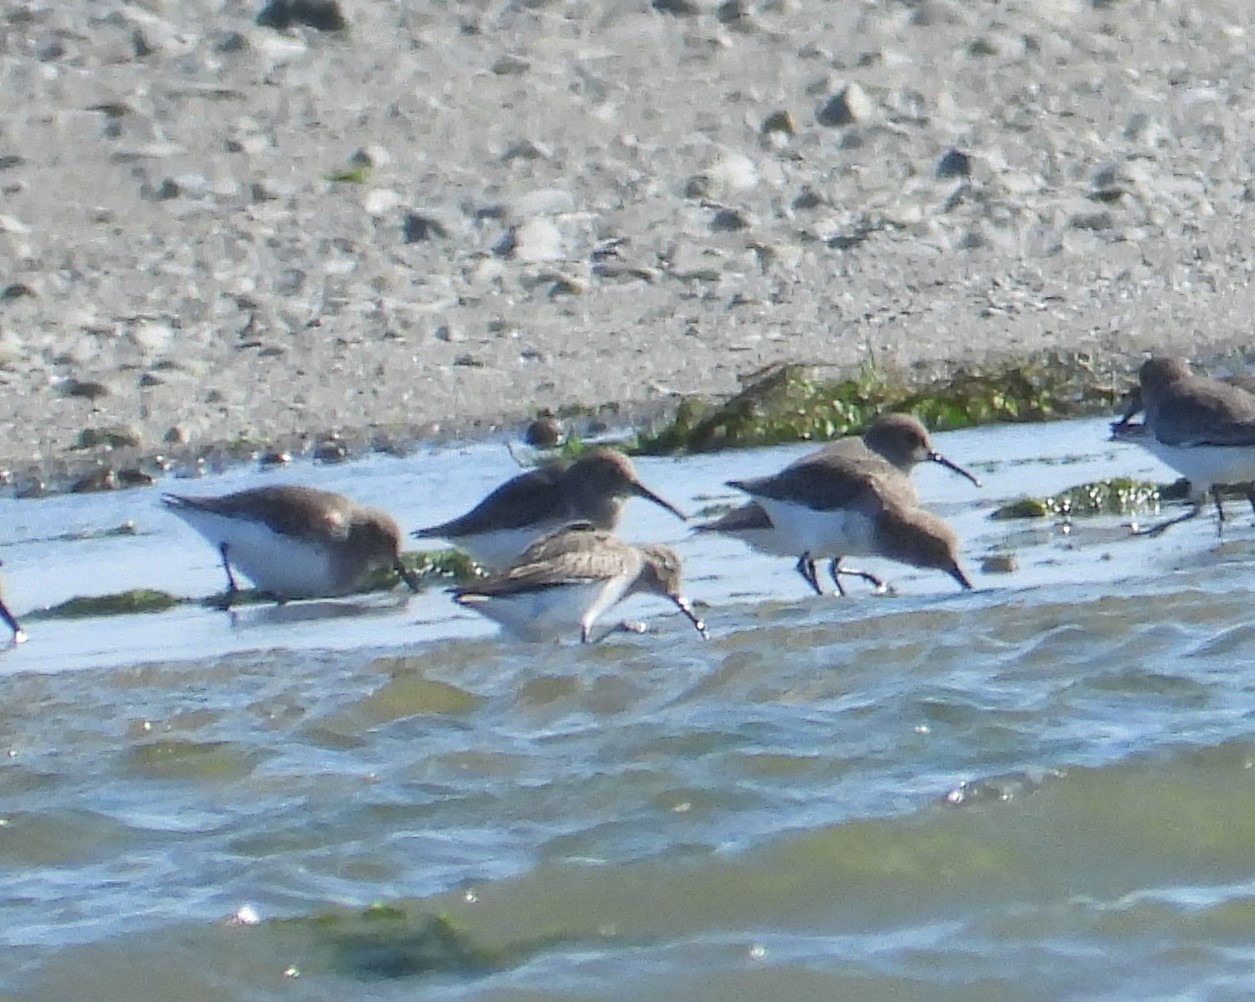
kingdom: Animalia
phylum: Chordata
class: Aves
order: Charadriiformes
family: Scolopacidae
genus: Calidris
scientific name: Calidris alpina
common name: Dunlin
